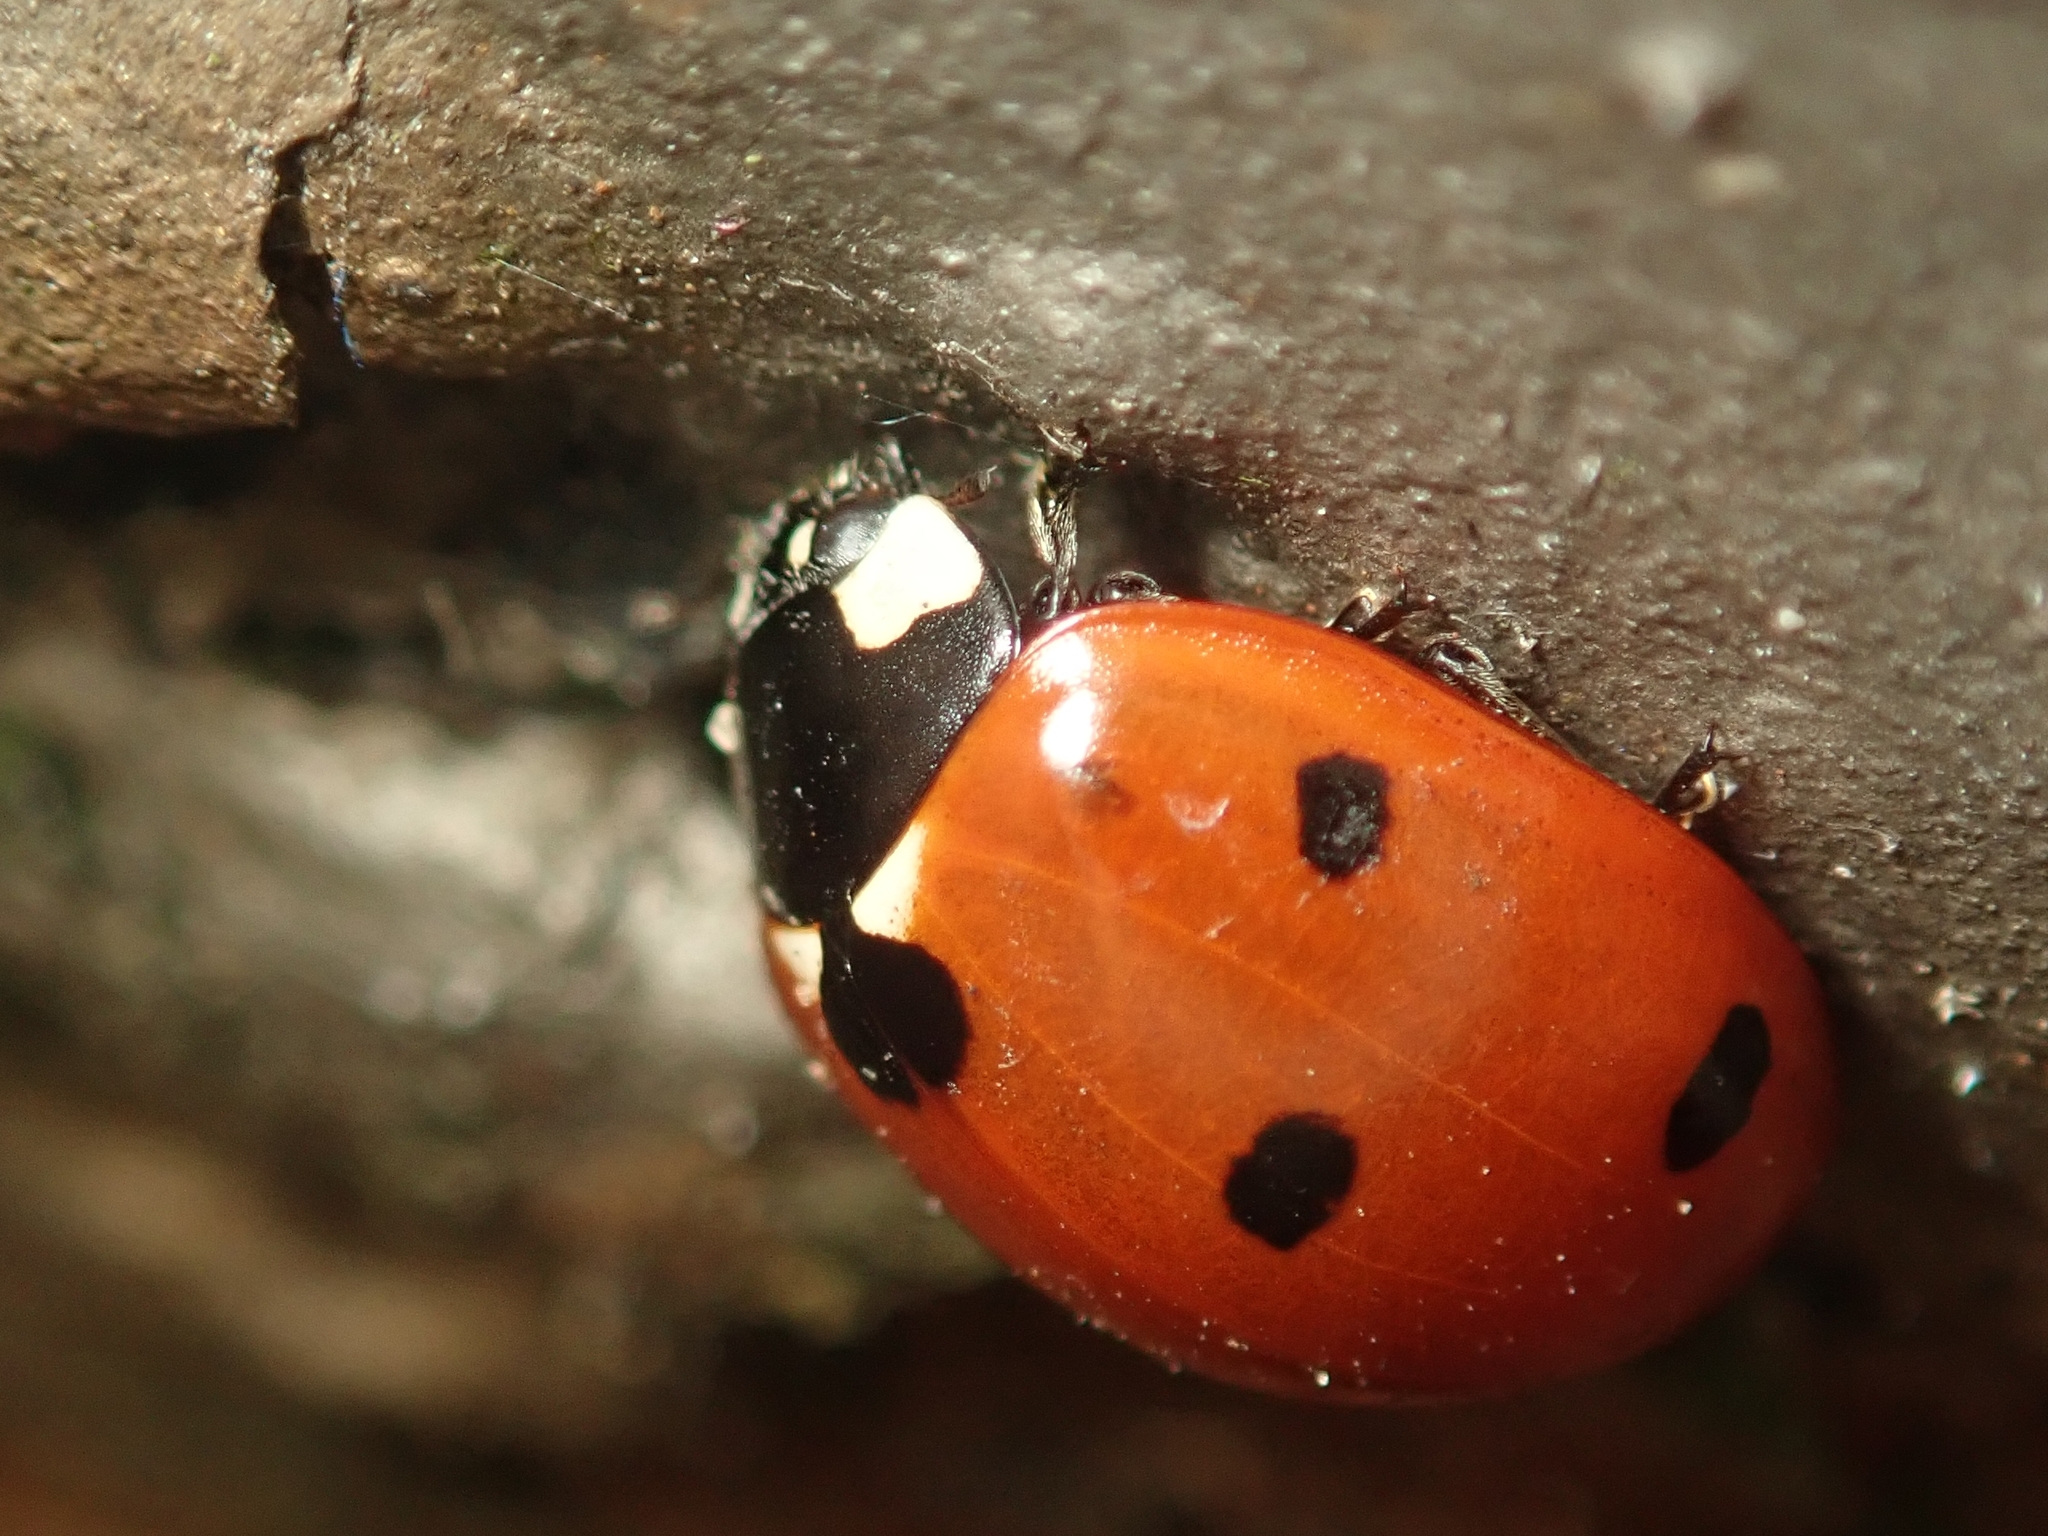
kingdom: Animalia
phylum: Arthropoda
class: Insecta
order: Coleoptera
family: Coccinellidae
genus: Coccinella
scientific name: Coccinella septempunctata
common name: Sevenspotted lady beetle
